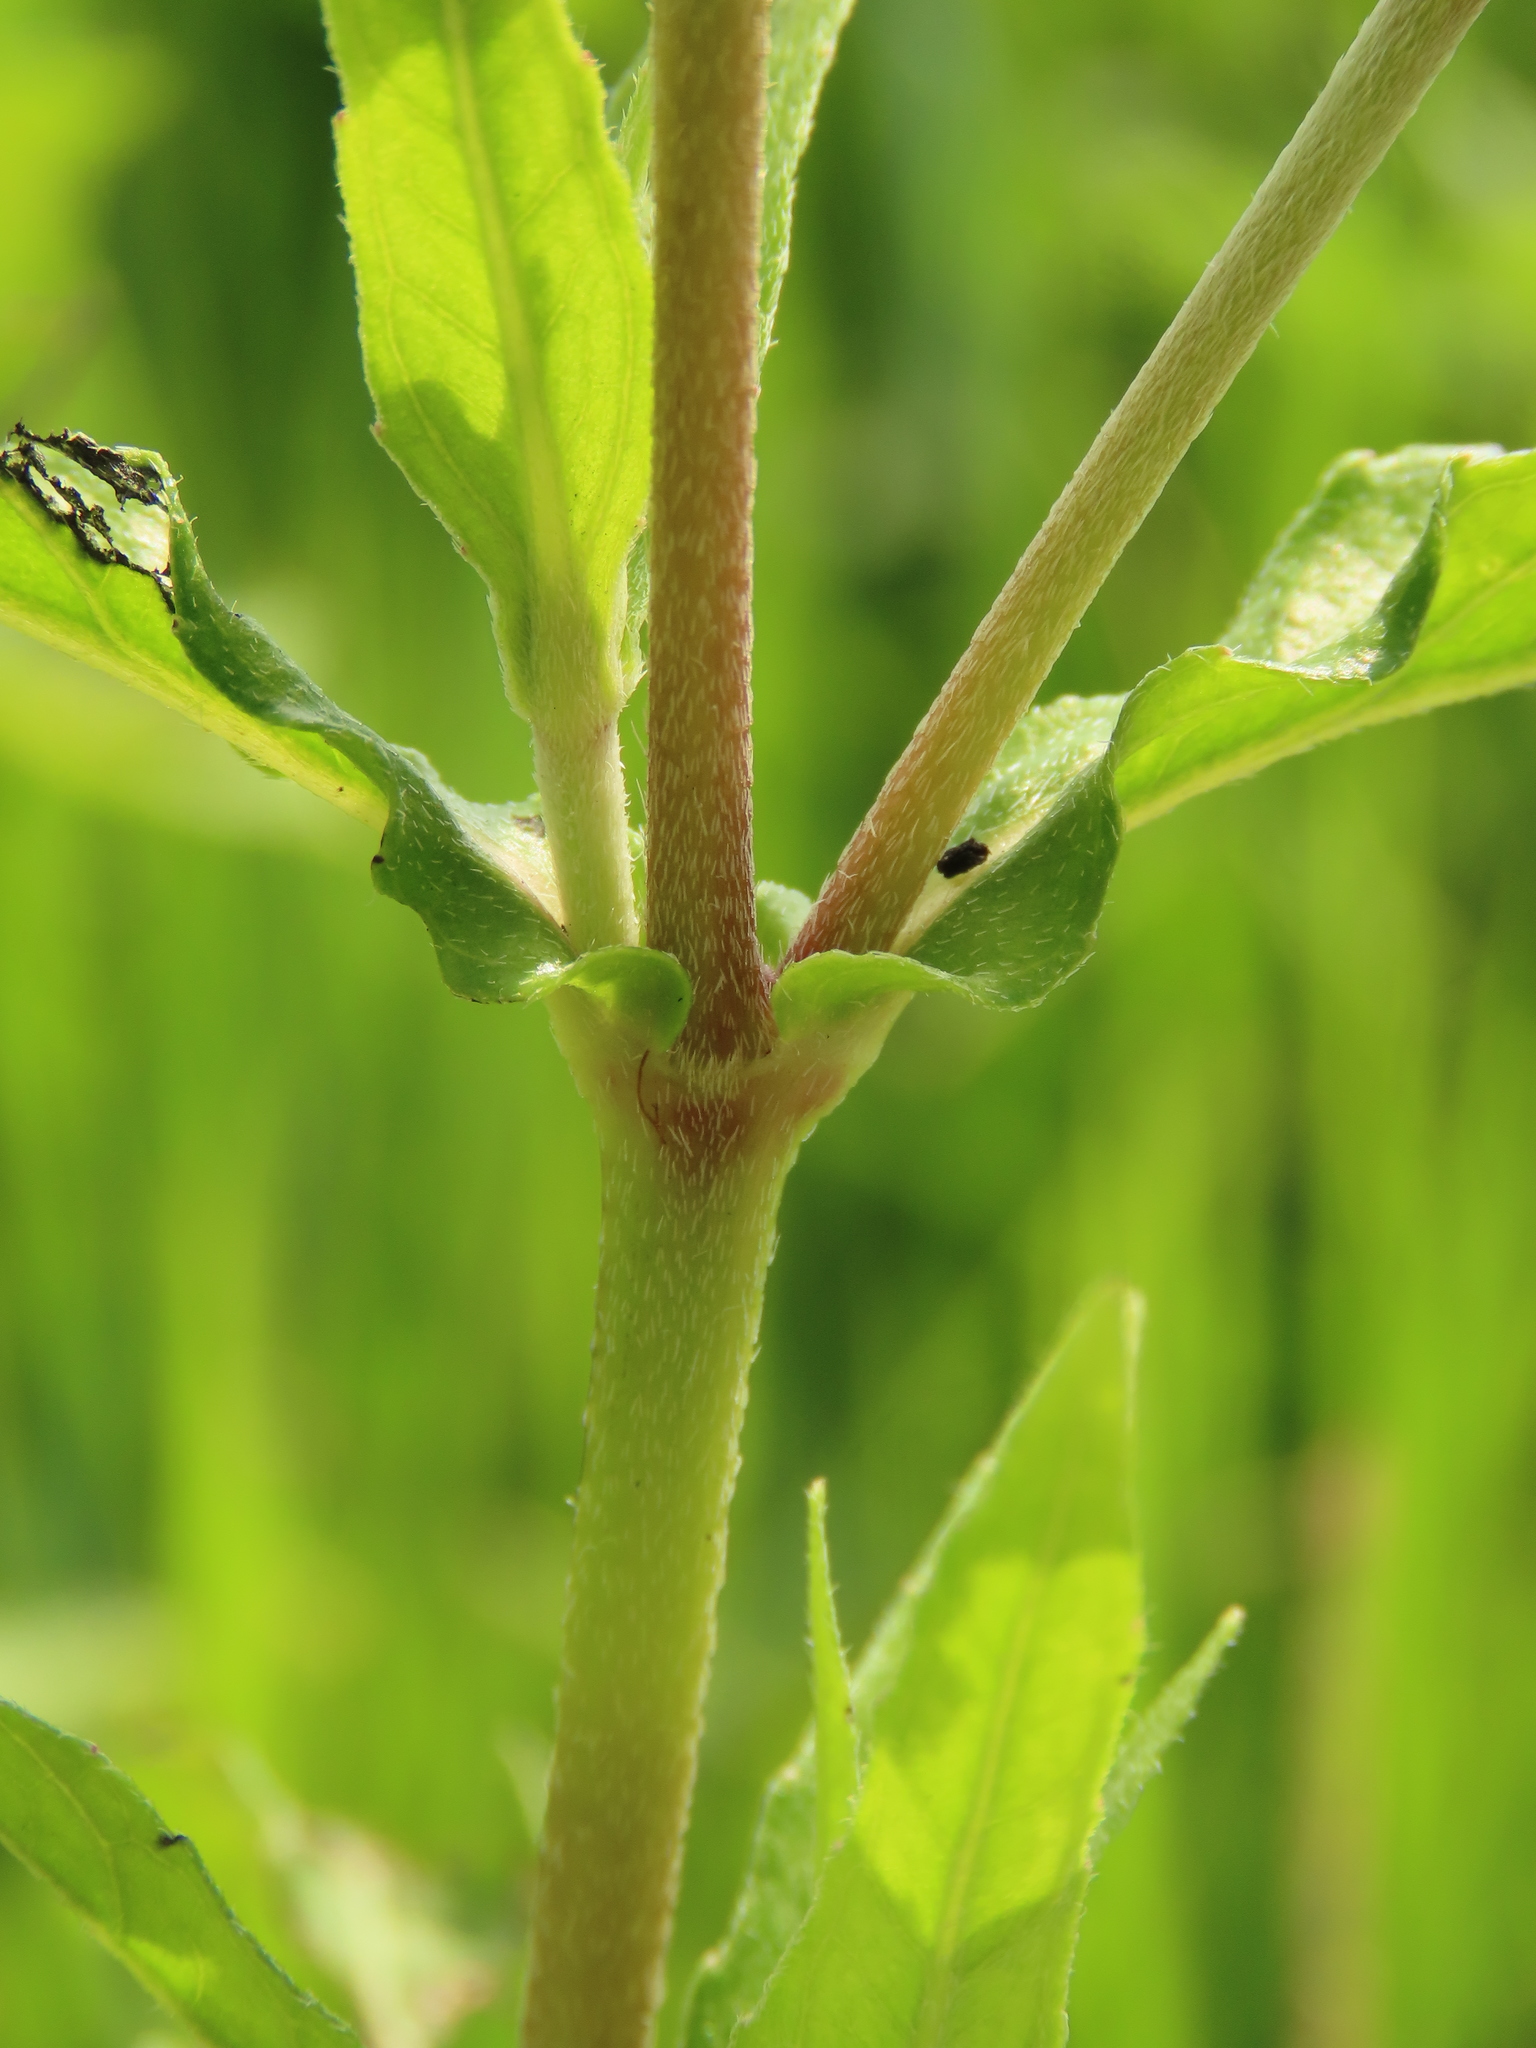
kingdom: Plantae
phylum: Tracheophyta
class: Magnoliopsida
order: Asterales
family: Asteraceae
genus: Eclipta
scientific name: Eclipta prostrata
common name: False daisy
